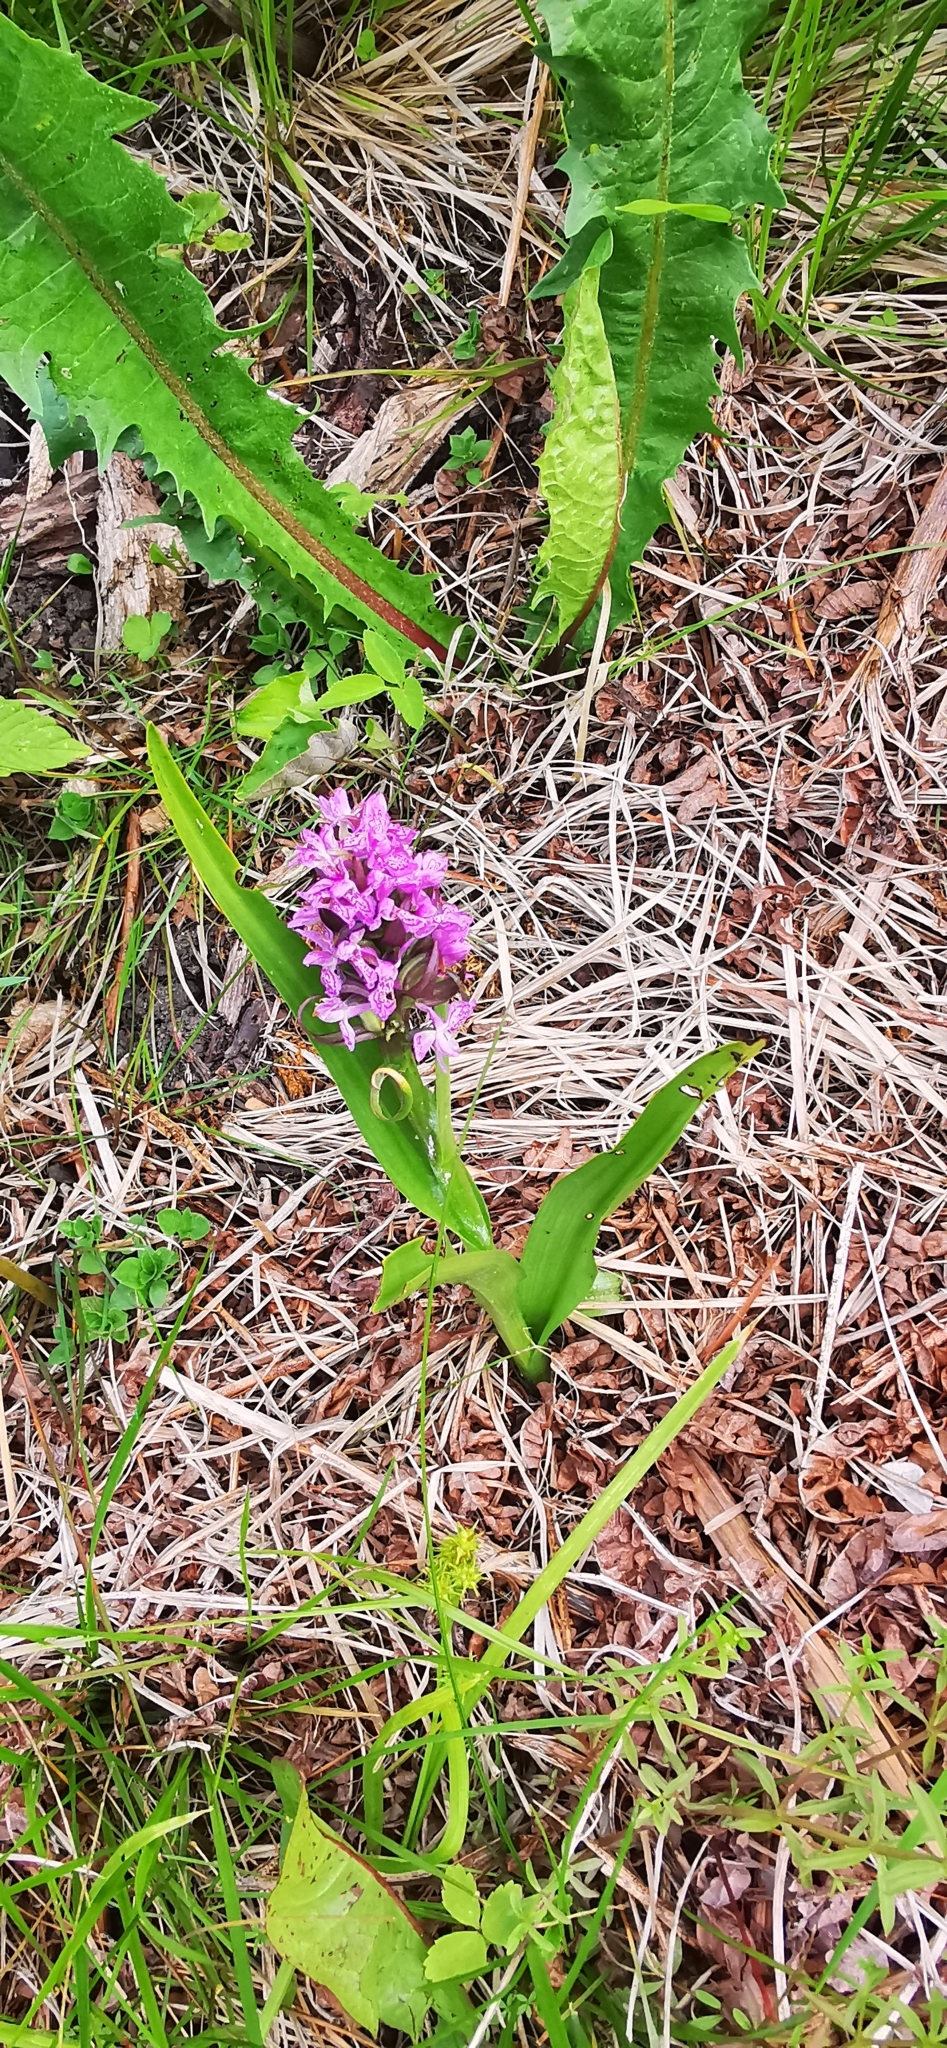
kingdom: Plantae
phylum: Tracheophyta
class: Liliopsida
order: Asparagales
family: Orchidaceae
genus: Dactylorhiza
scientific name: Dactylorhiza incarnata
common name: Early marsh-orchid
